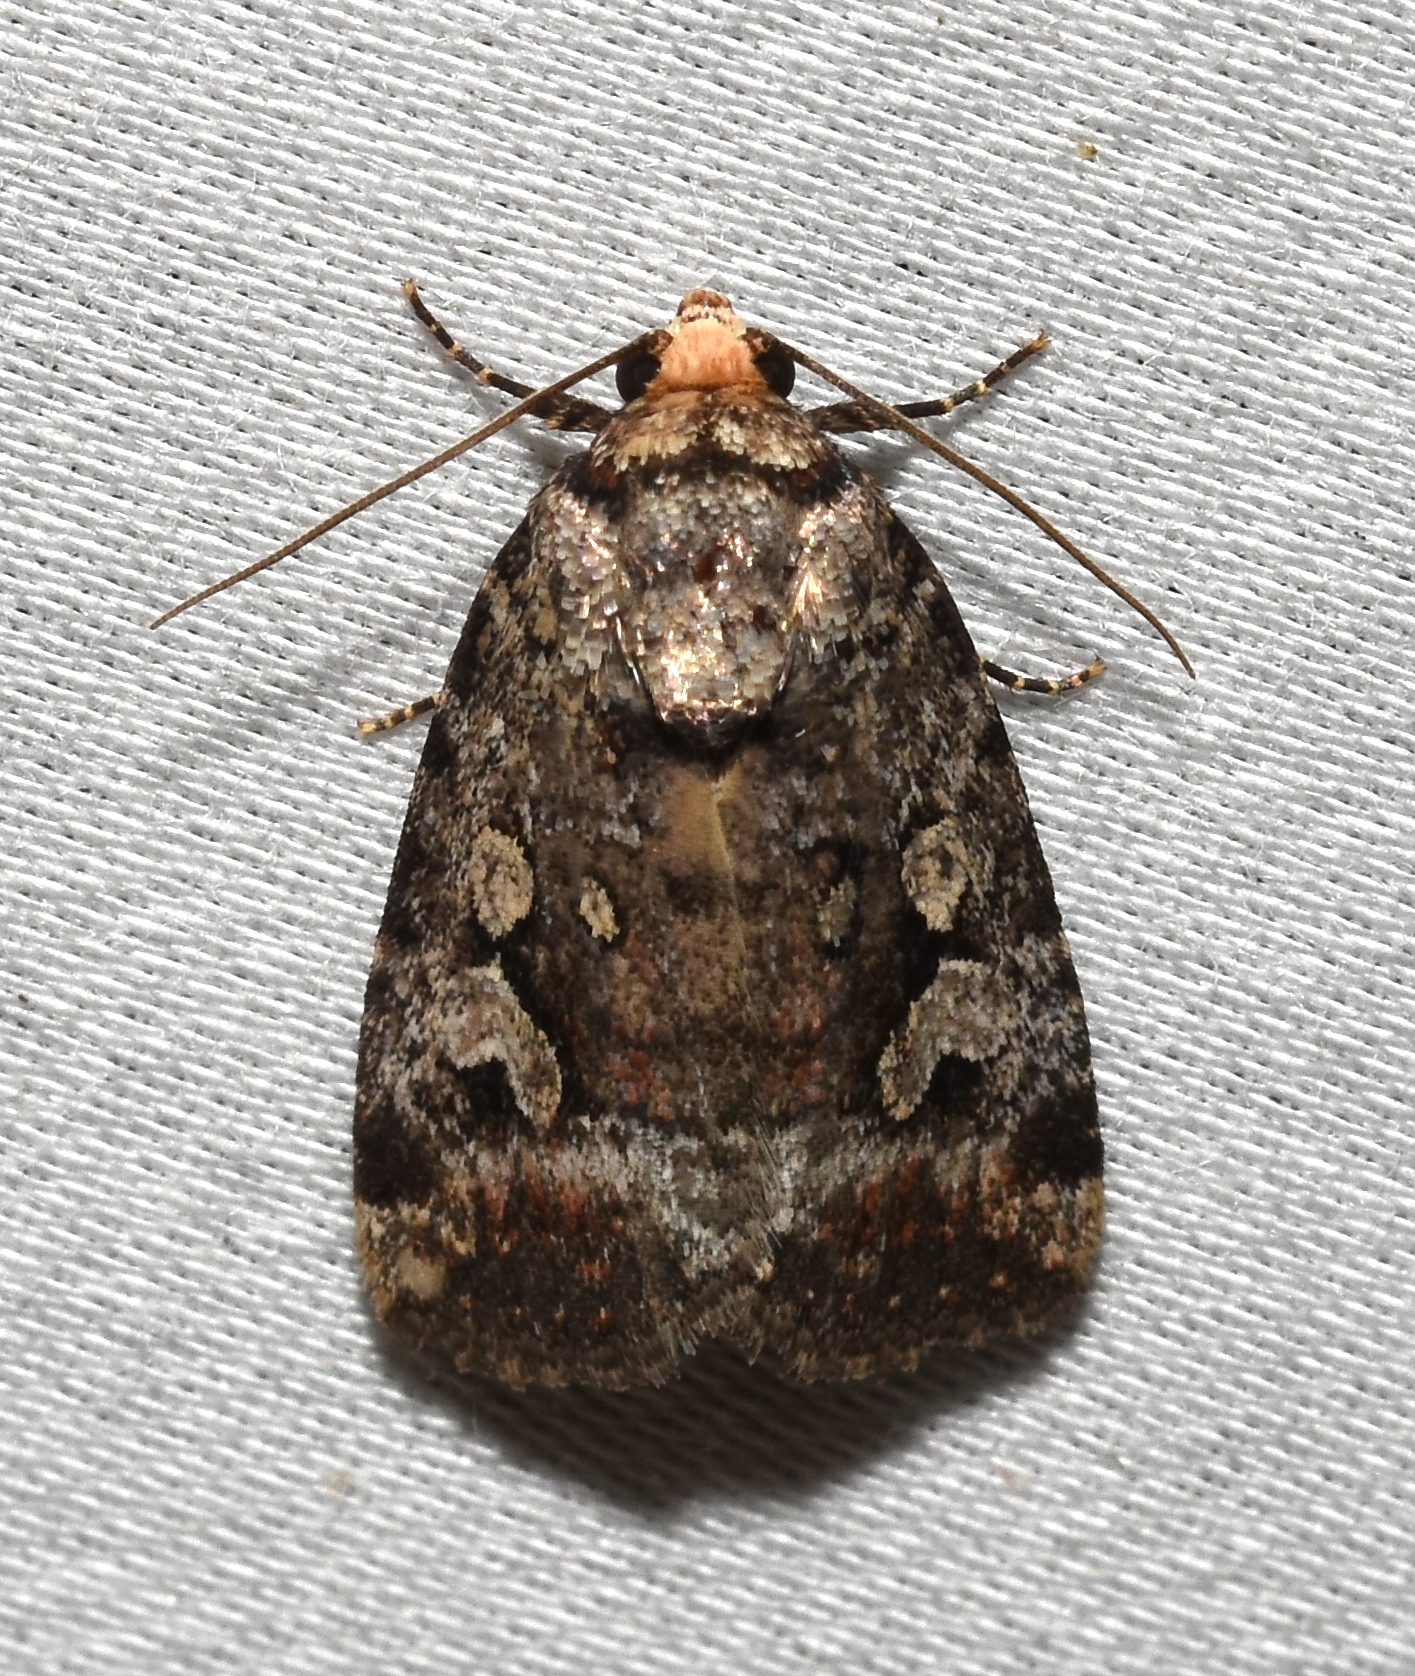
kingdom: Animalia
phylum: Arthropoda
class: Insecta
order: Lepidoptera
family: Noctuidae
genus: Elaphria
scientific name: Elaphria alapallida
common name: Pale-winged midget
